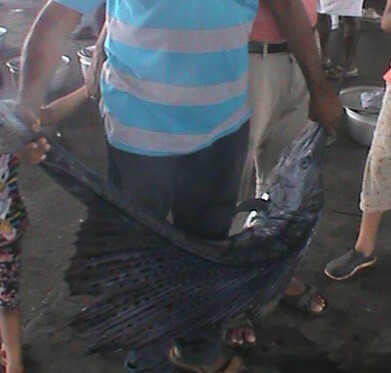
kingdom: Animalia
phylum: Chordata
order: Perciformes
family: Istiophoridae
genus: Istiophorus
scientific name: Istiophorus platypterus
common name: Sailfish
